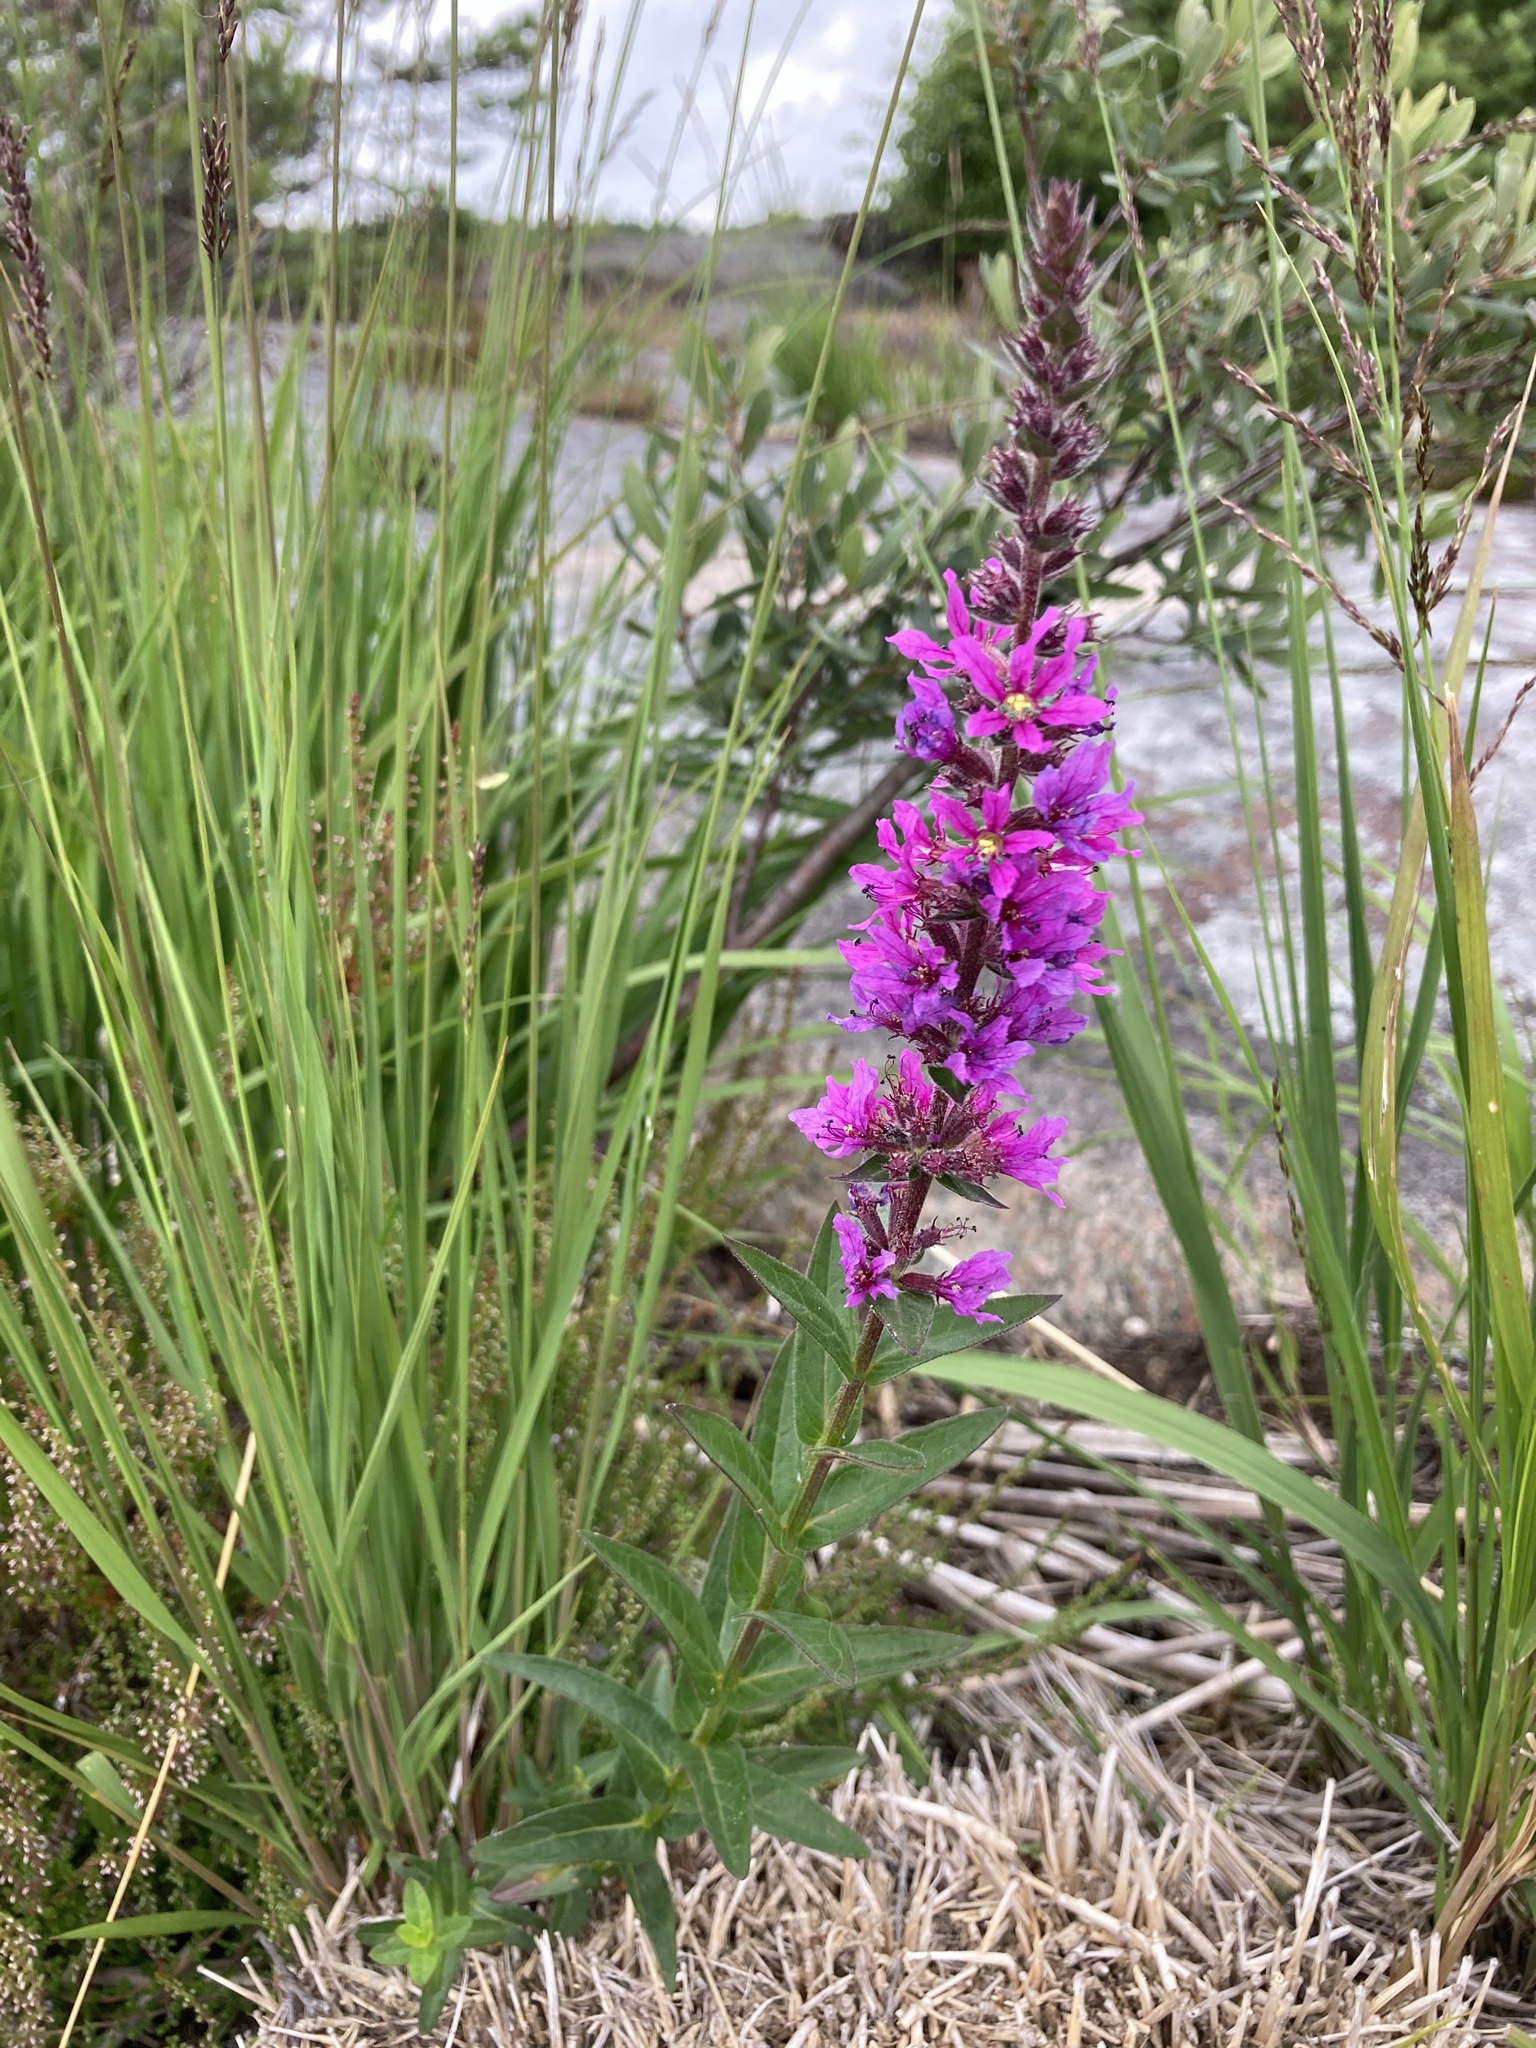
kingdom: Plantae
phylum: Tracheophyta
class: Magnoliopsida
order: Myrtales
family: Lythraceae
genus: Lythrum
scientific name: Lythrum salicaria
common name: Purple loosestrife
